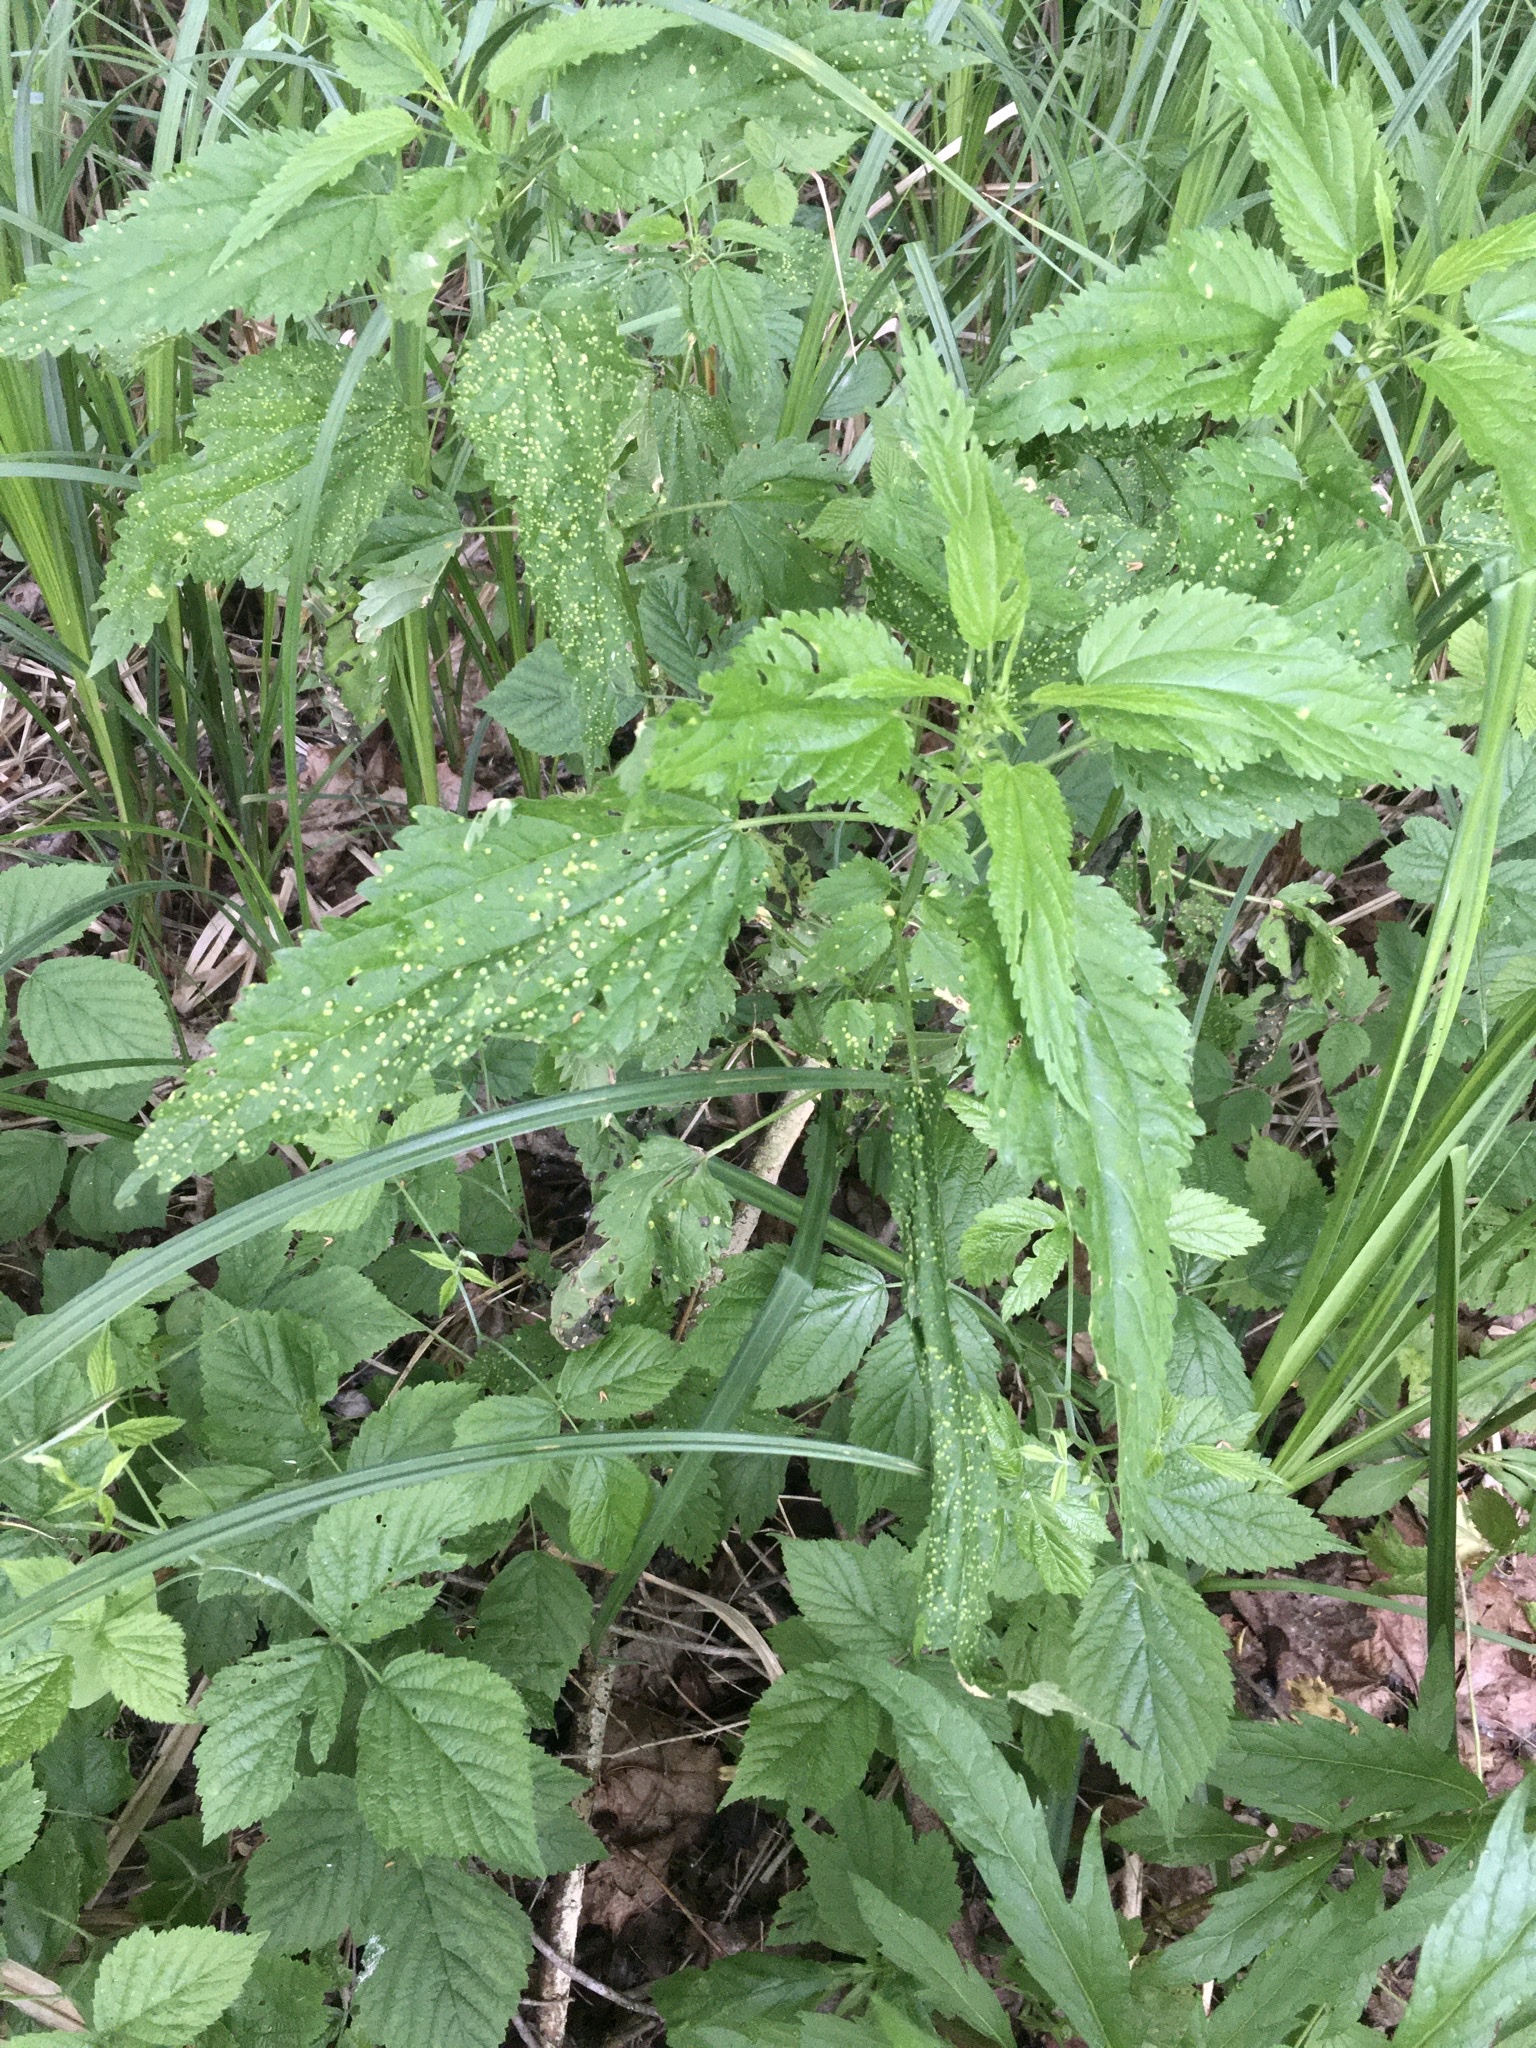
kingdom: Fungi
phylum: Basidiomycota
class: Pucciniomycetes
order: Pucciniales
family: Pucciniaceae
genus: Puccinia
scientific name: Puccinia urticata
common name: Nettle clustercup rust fungus
